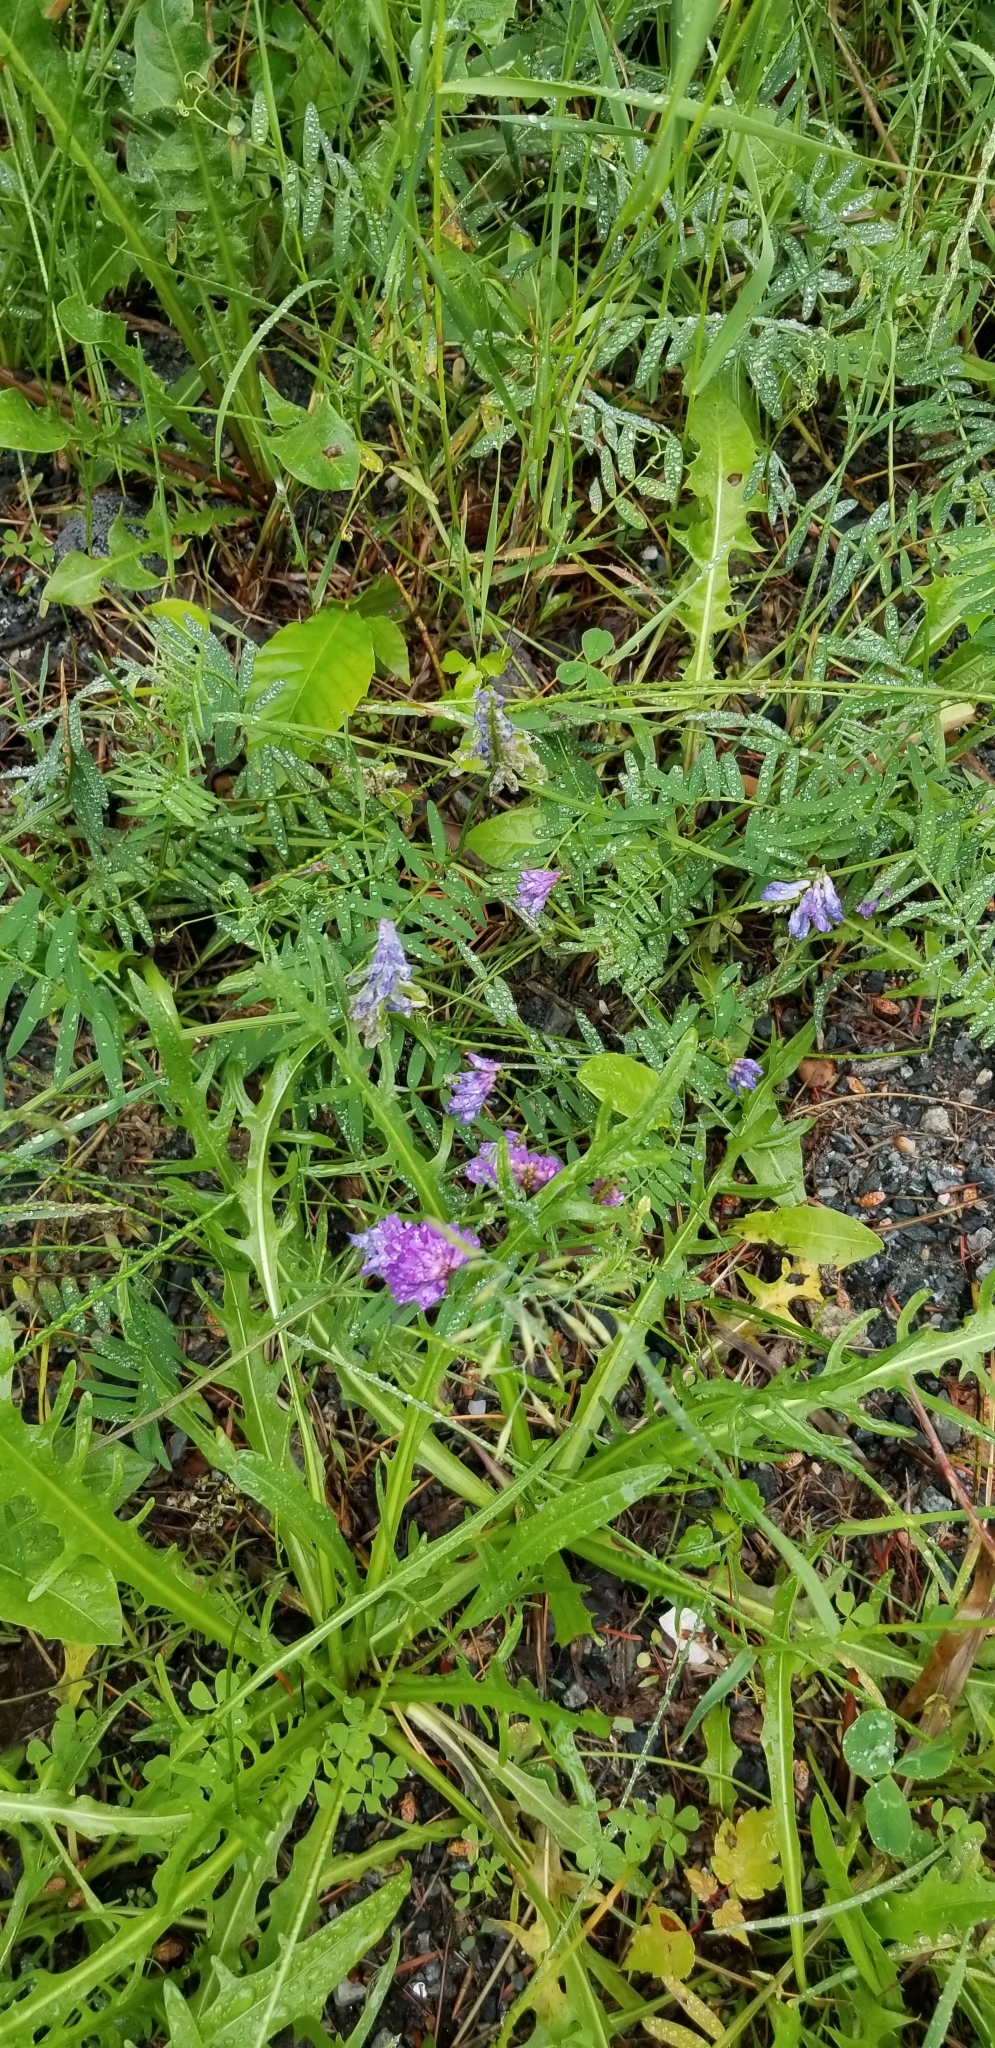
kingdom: Plantae
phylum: Tracheophyta
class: Magnoliopsida
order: Fabales
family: Fabaceae
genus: Vicia
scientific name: Vicia cracca
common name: Bird vetch
